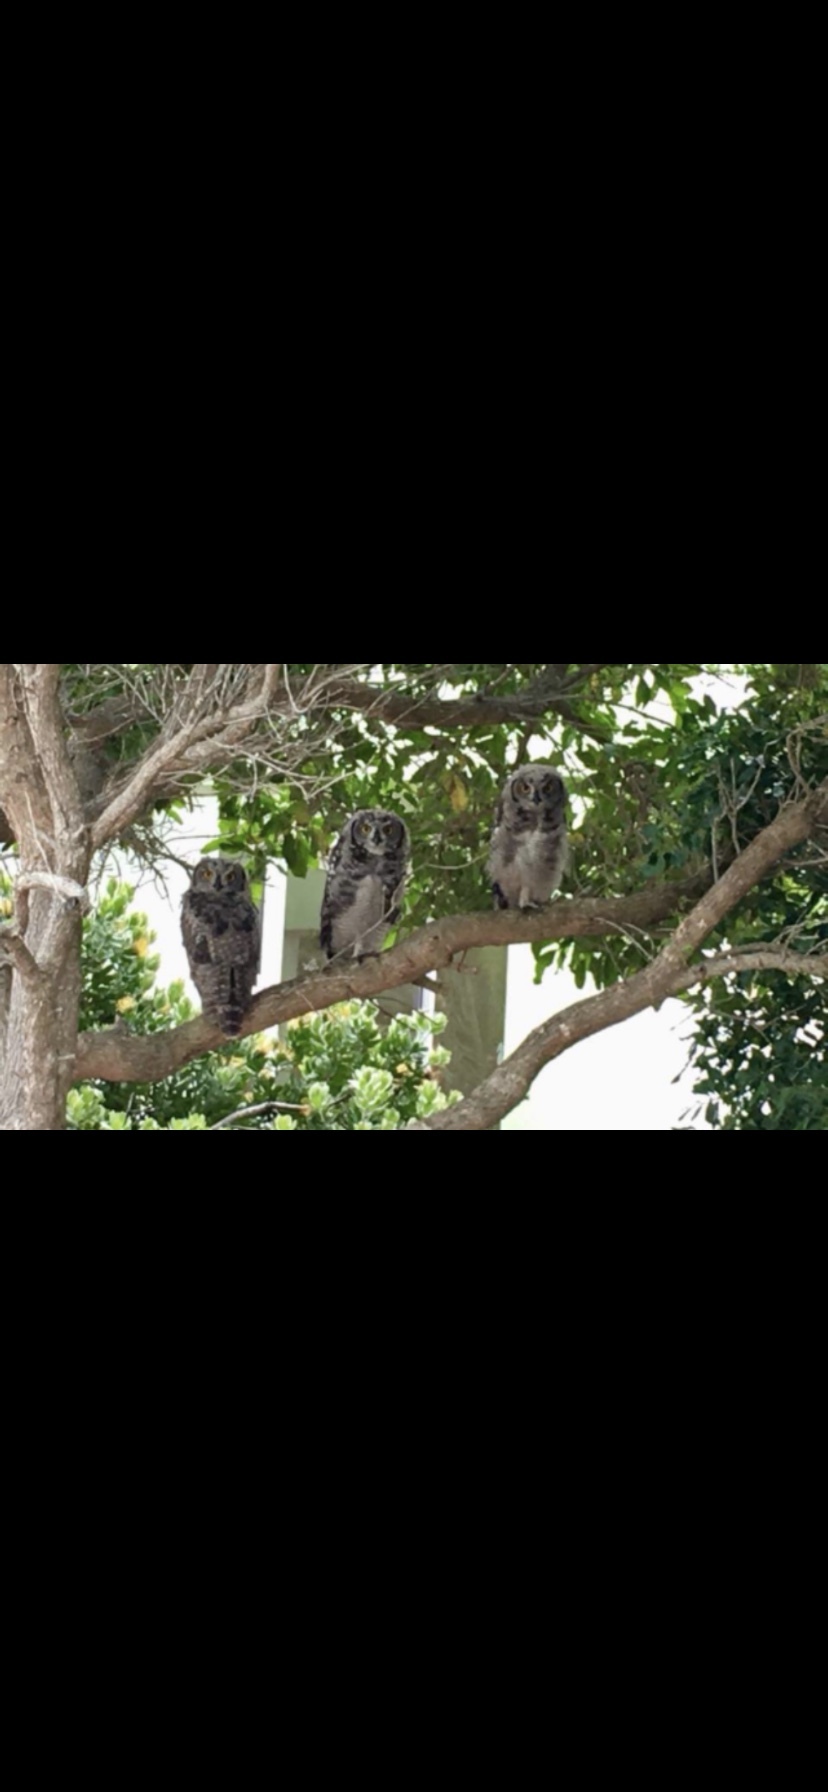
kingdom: Animalia
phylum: Chordata
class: Aves
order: Strigiformes
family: Strigidae
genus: Bubo
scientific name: Bubo africanus
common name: Spotted eagle-owl
